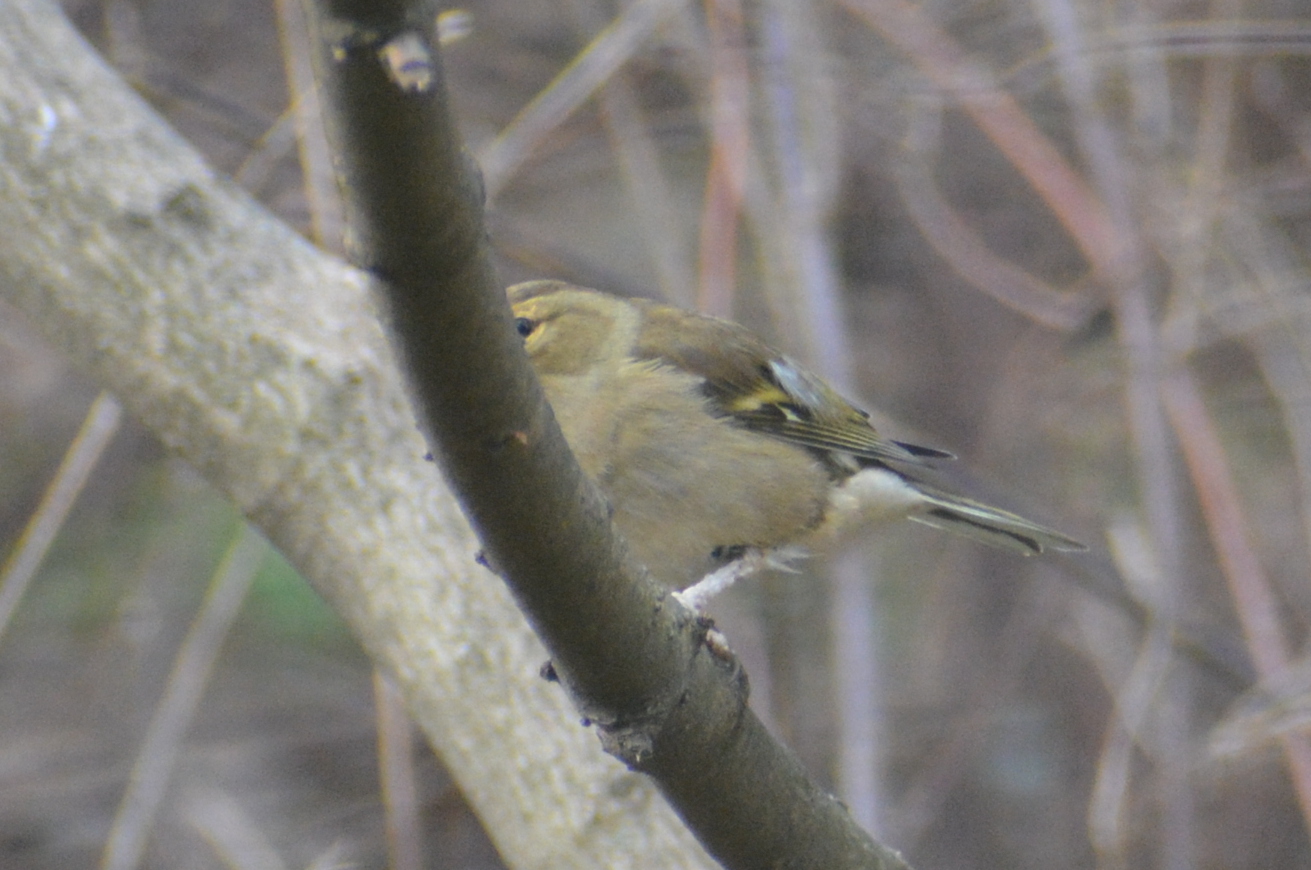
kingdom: Animalia
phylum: Chordata
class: Aves
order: Passeriformes
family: Fringillidae
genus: Fringilla
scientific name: Fringilla coelebs
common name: Common chaffinch
